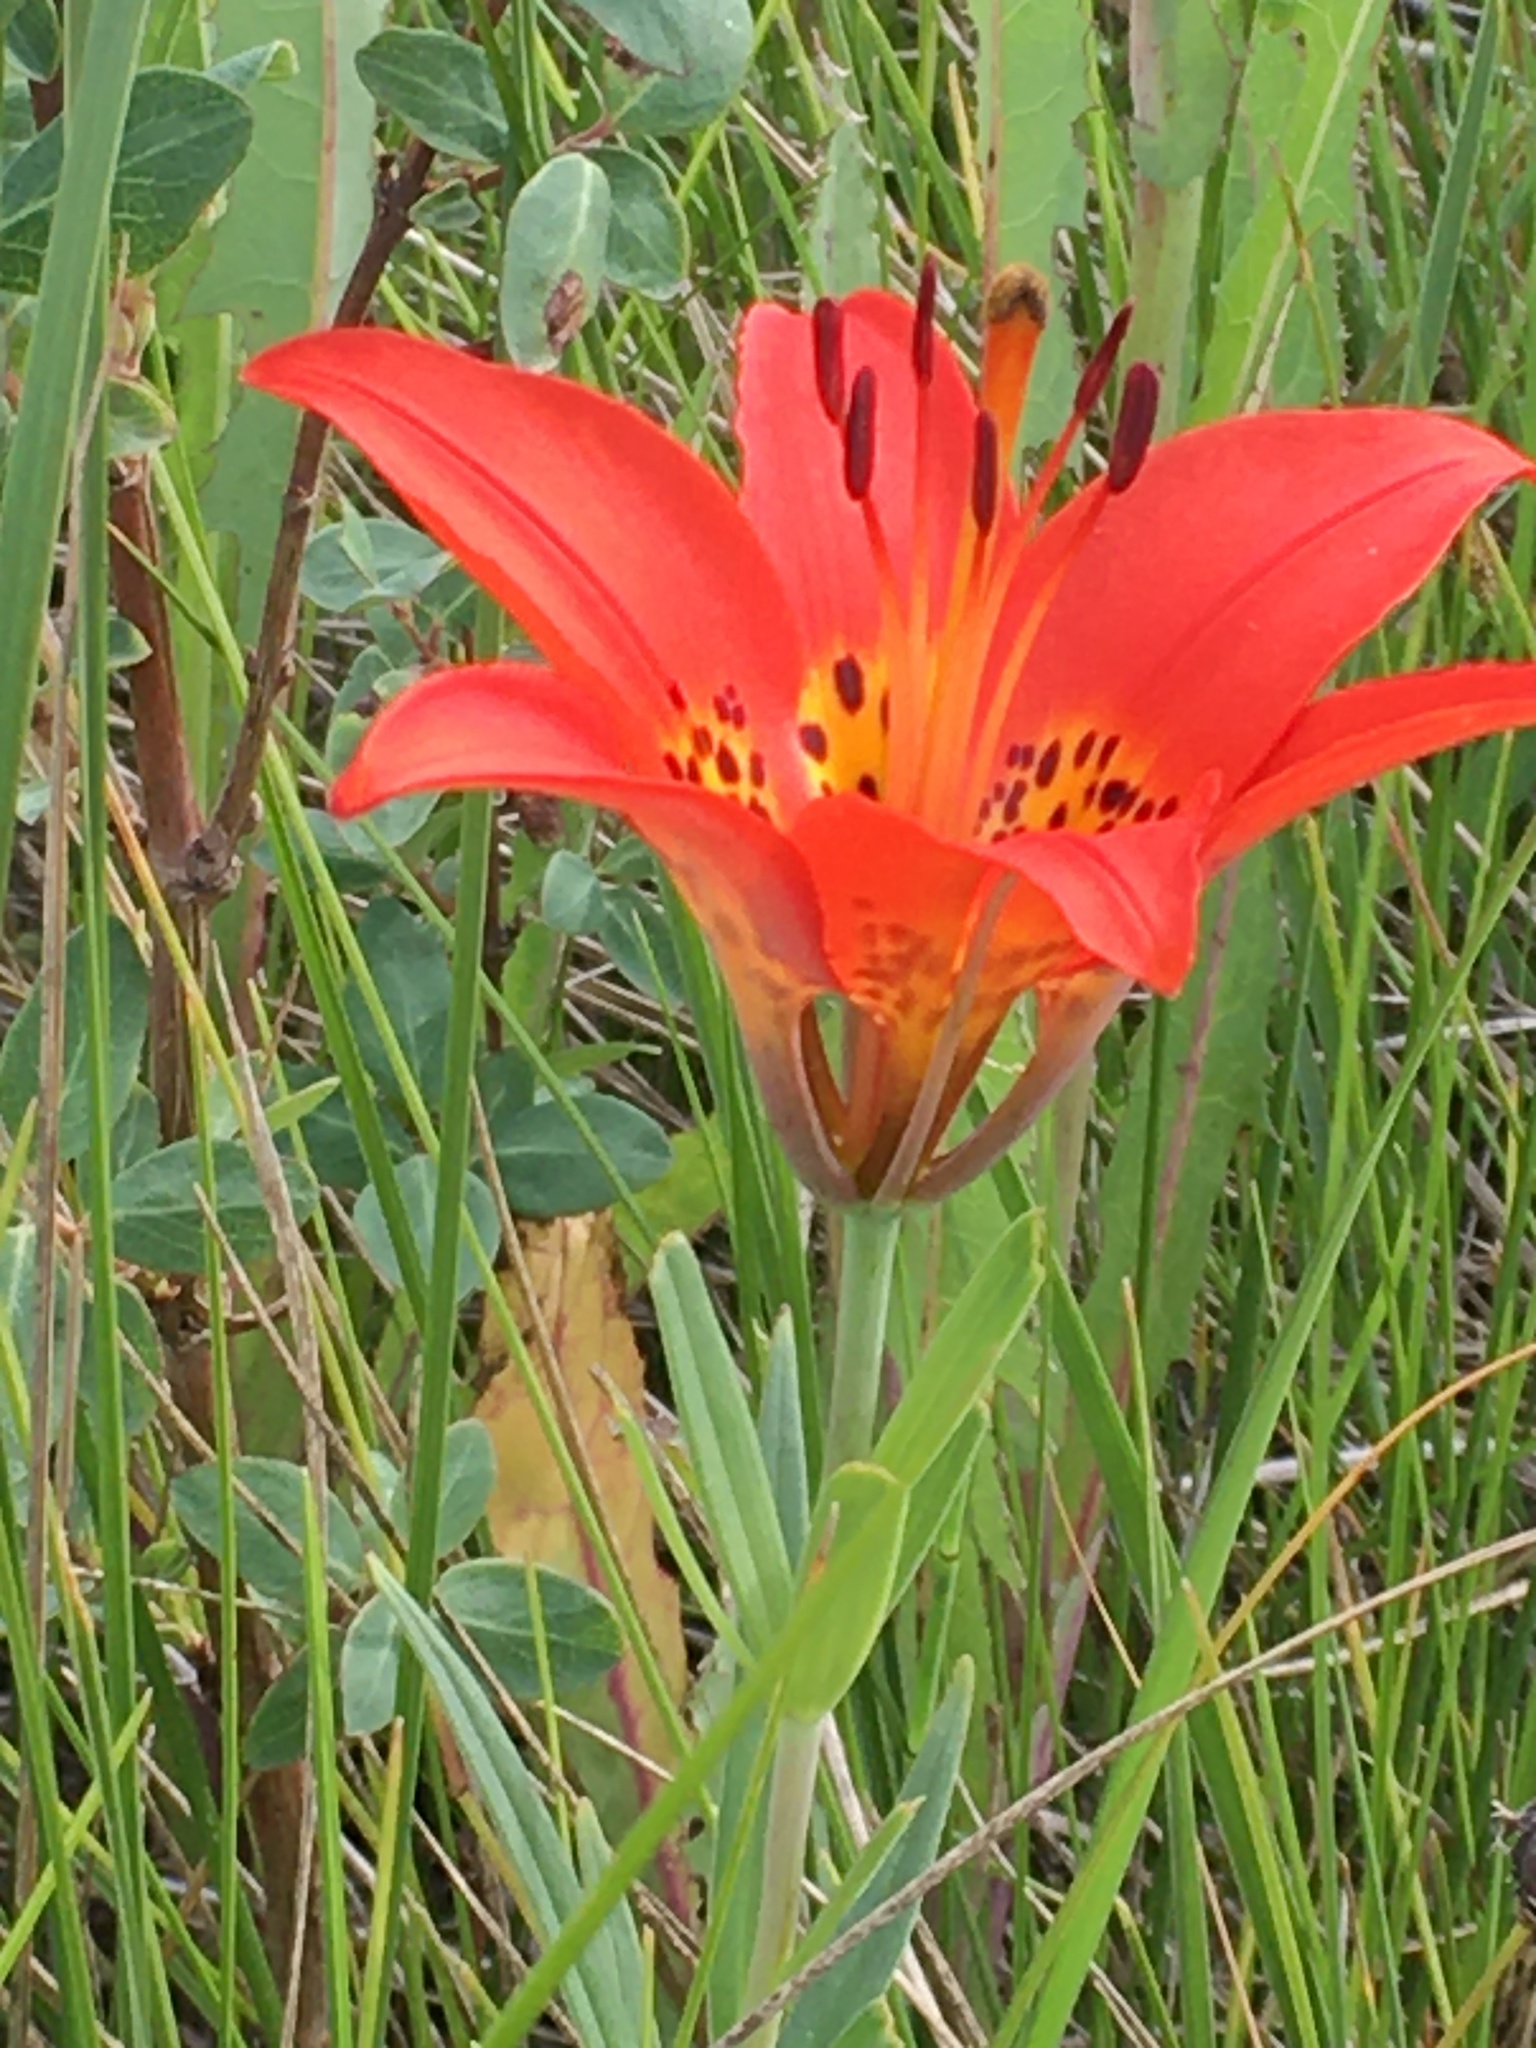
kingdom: Plantae
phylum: Tracheophyta
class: Liliopsida
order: Liliales
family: Liliaceae
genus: Lilium
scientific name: Lilium philadelphicum
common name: Red lily
